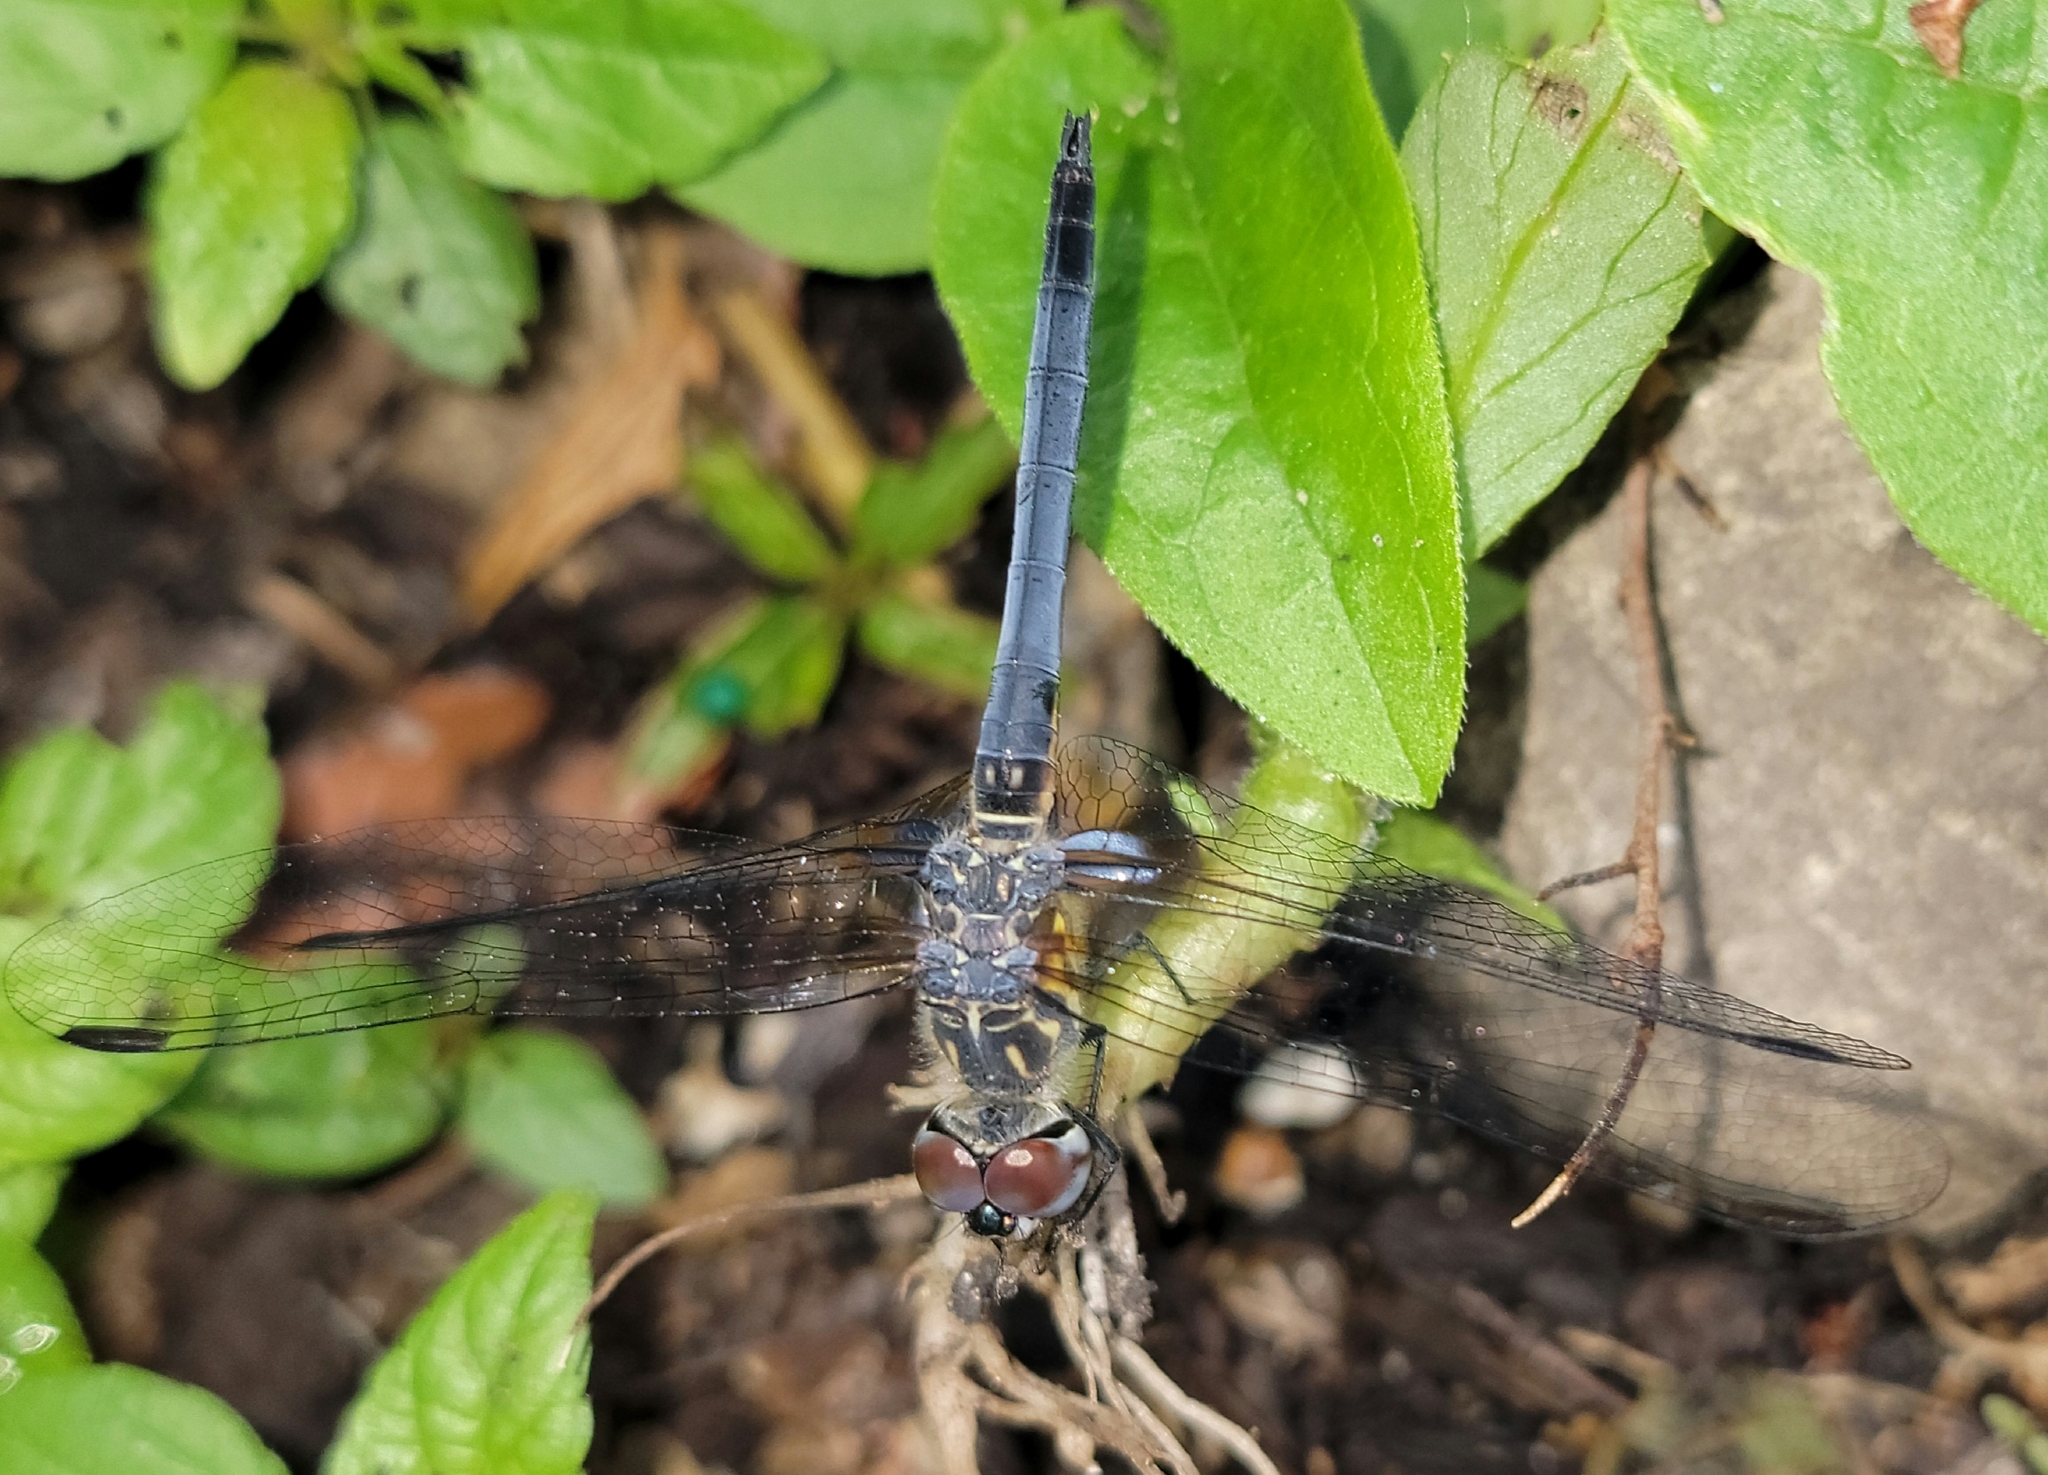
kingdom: Animalia
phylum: Arthropoda
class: Insecta
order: Odonata
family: Libellulidae
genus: Pachydiplax
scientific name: Pachydiplax longipennis
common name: Blue dasher
